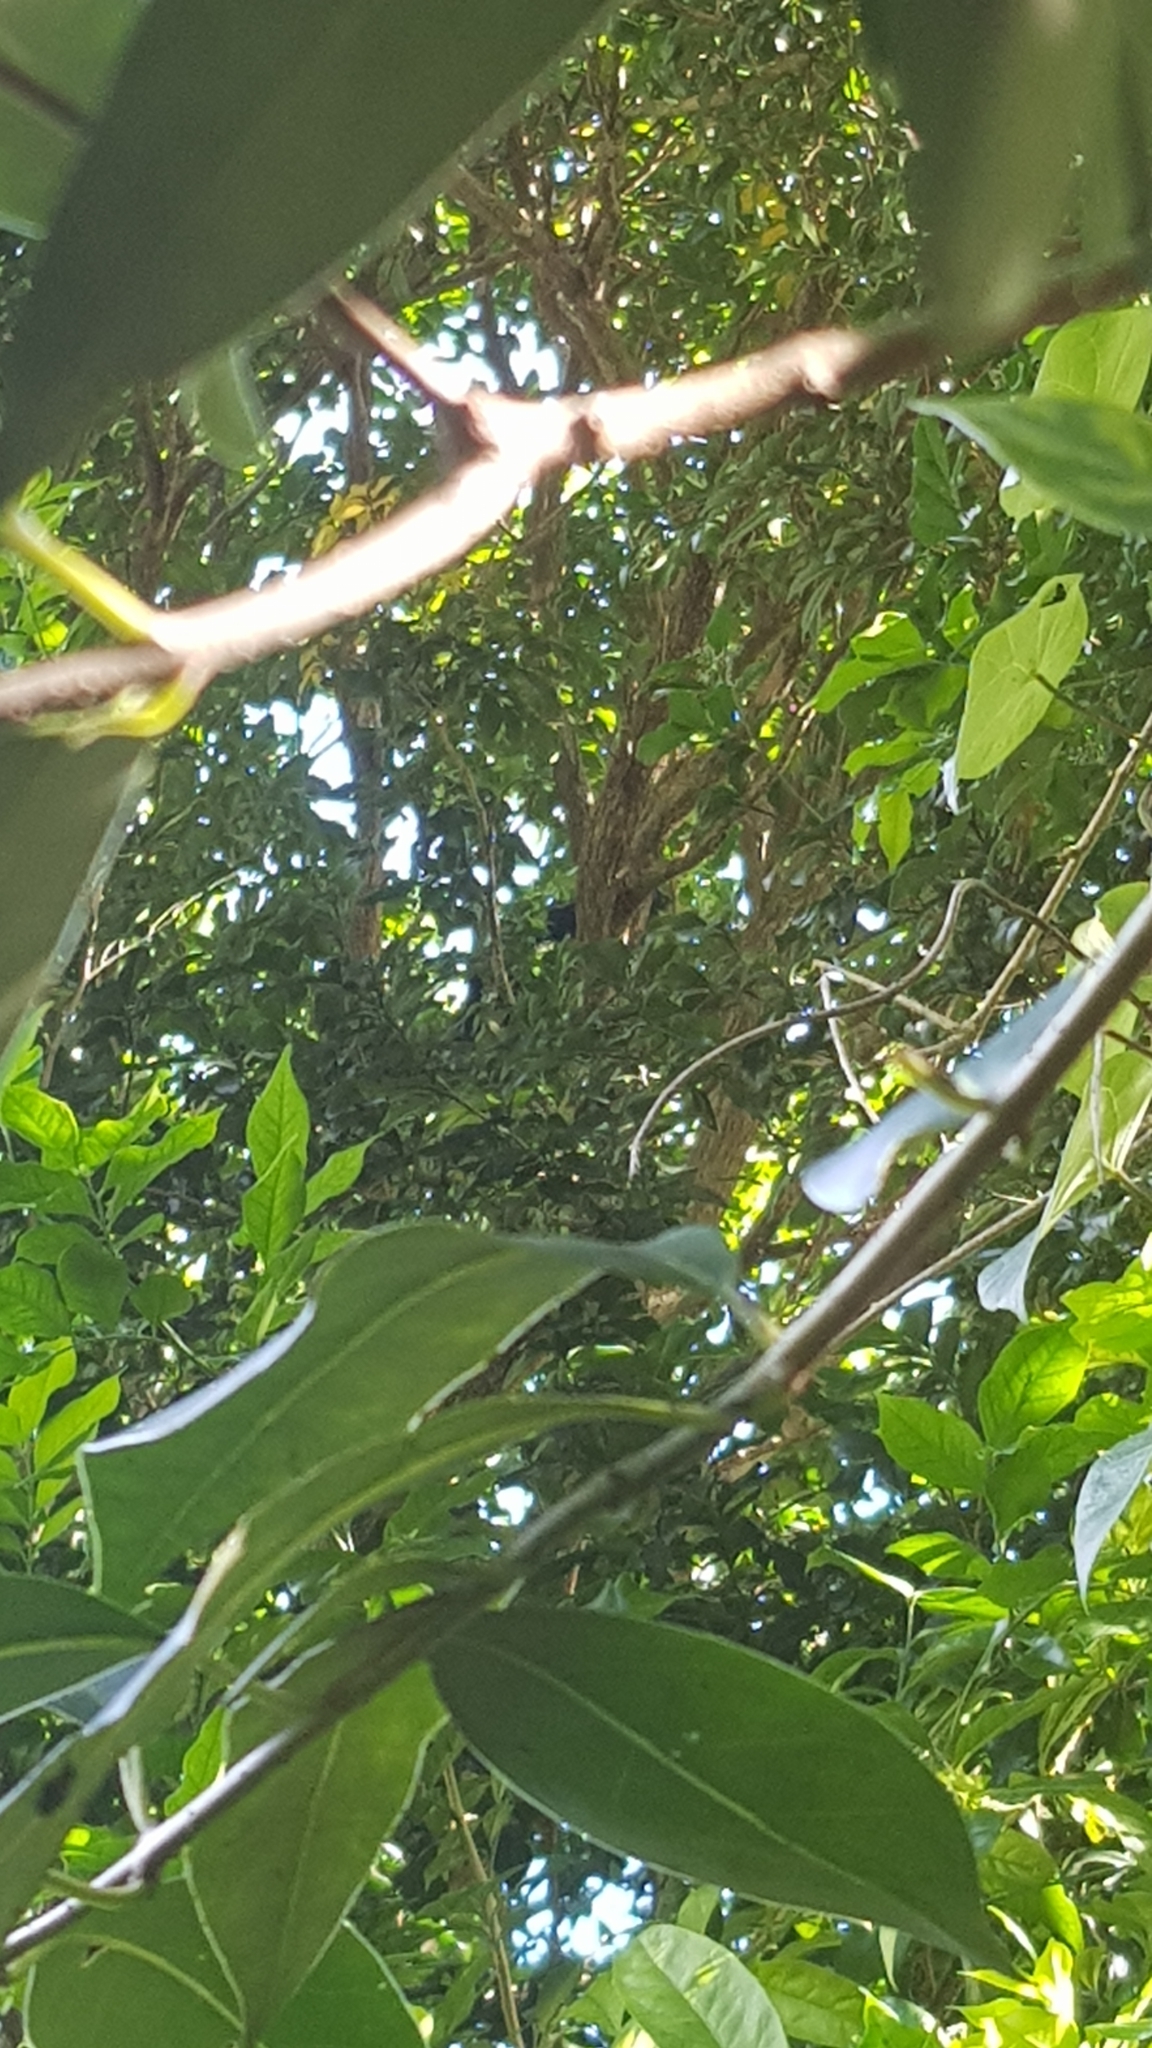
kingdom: Animalia
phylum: Chordata
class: Aves
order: Passeriformes
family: Ptilonorhynchidae
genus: Ptilonorhynchus
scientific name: Ptilonorhynchus violaceus
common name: Satin bowerbird
